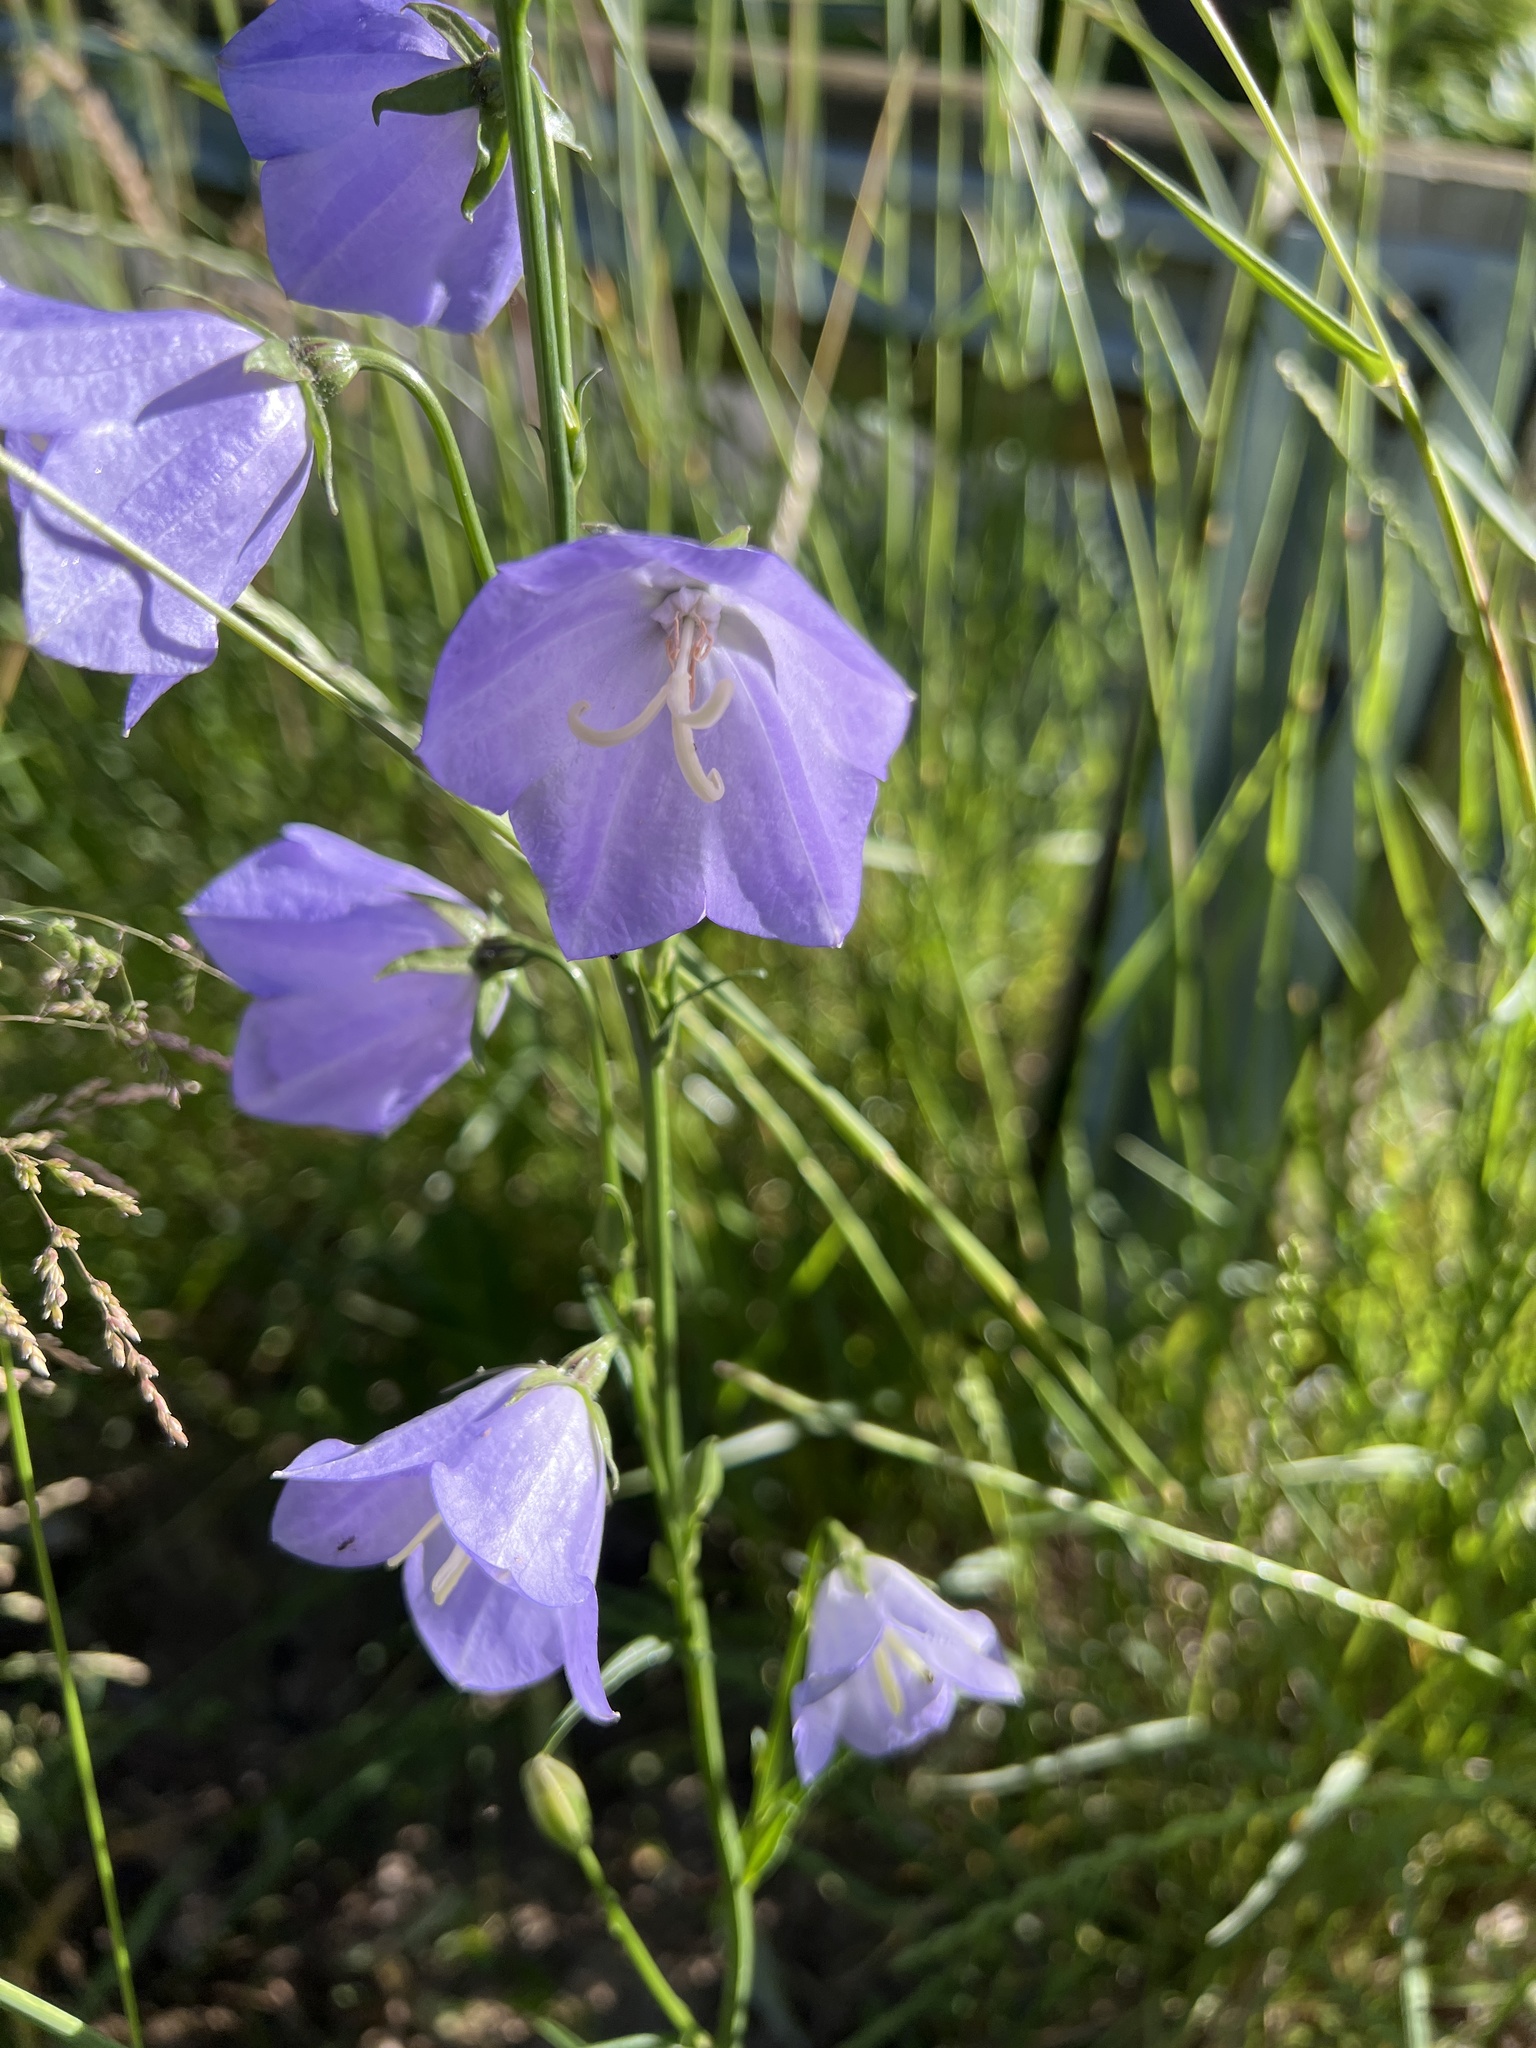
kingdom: Plantae
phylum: Tracheophyta
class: Magnoliopsida
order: Asterales
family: Campanulaceae
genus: Campanula
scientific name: Campanula persicifolia
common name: Peach-leaved bellflower
